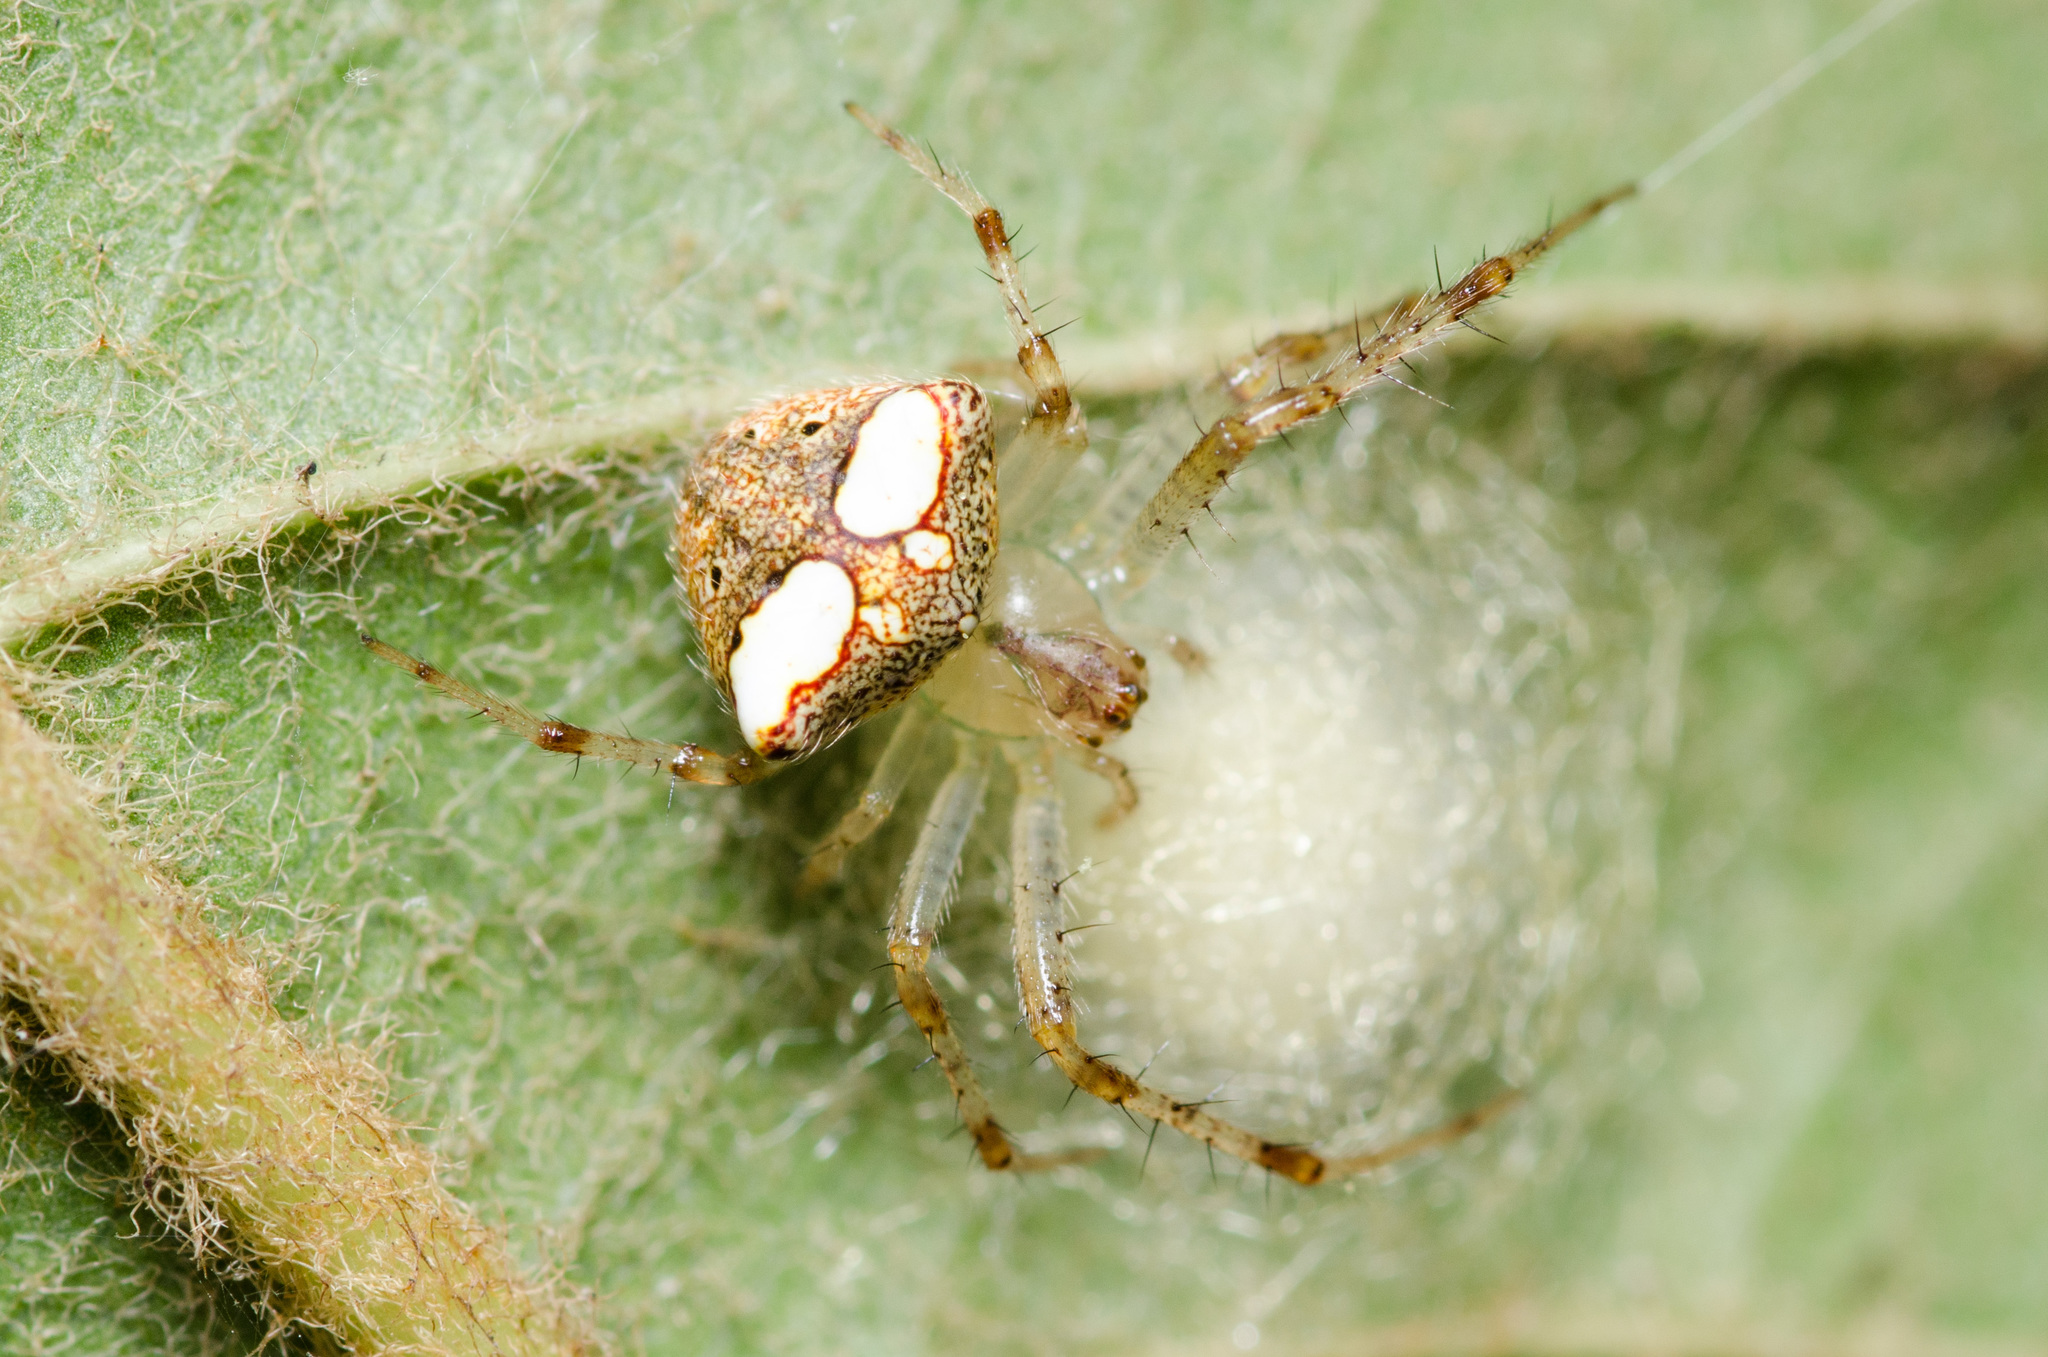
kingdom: Animalia
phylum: Arthropoda
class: Arachnida
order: Araneae
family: Araneidae
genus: Araneus
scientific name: Araneus miniatus
